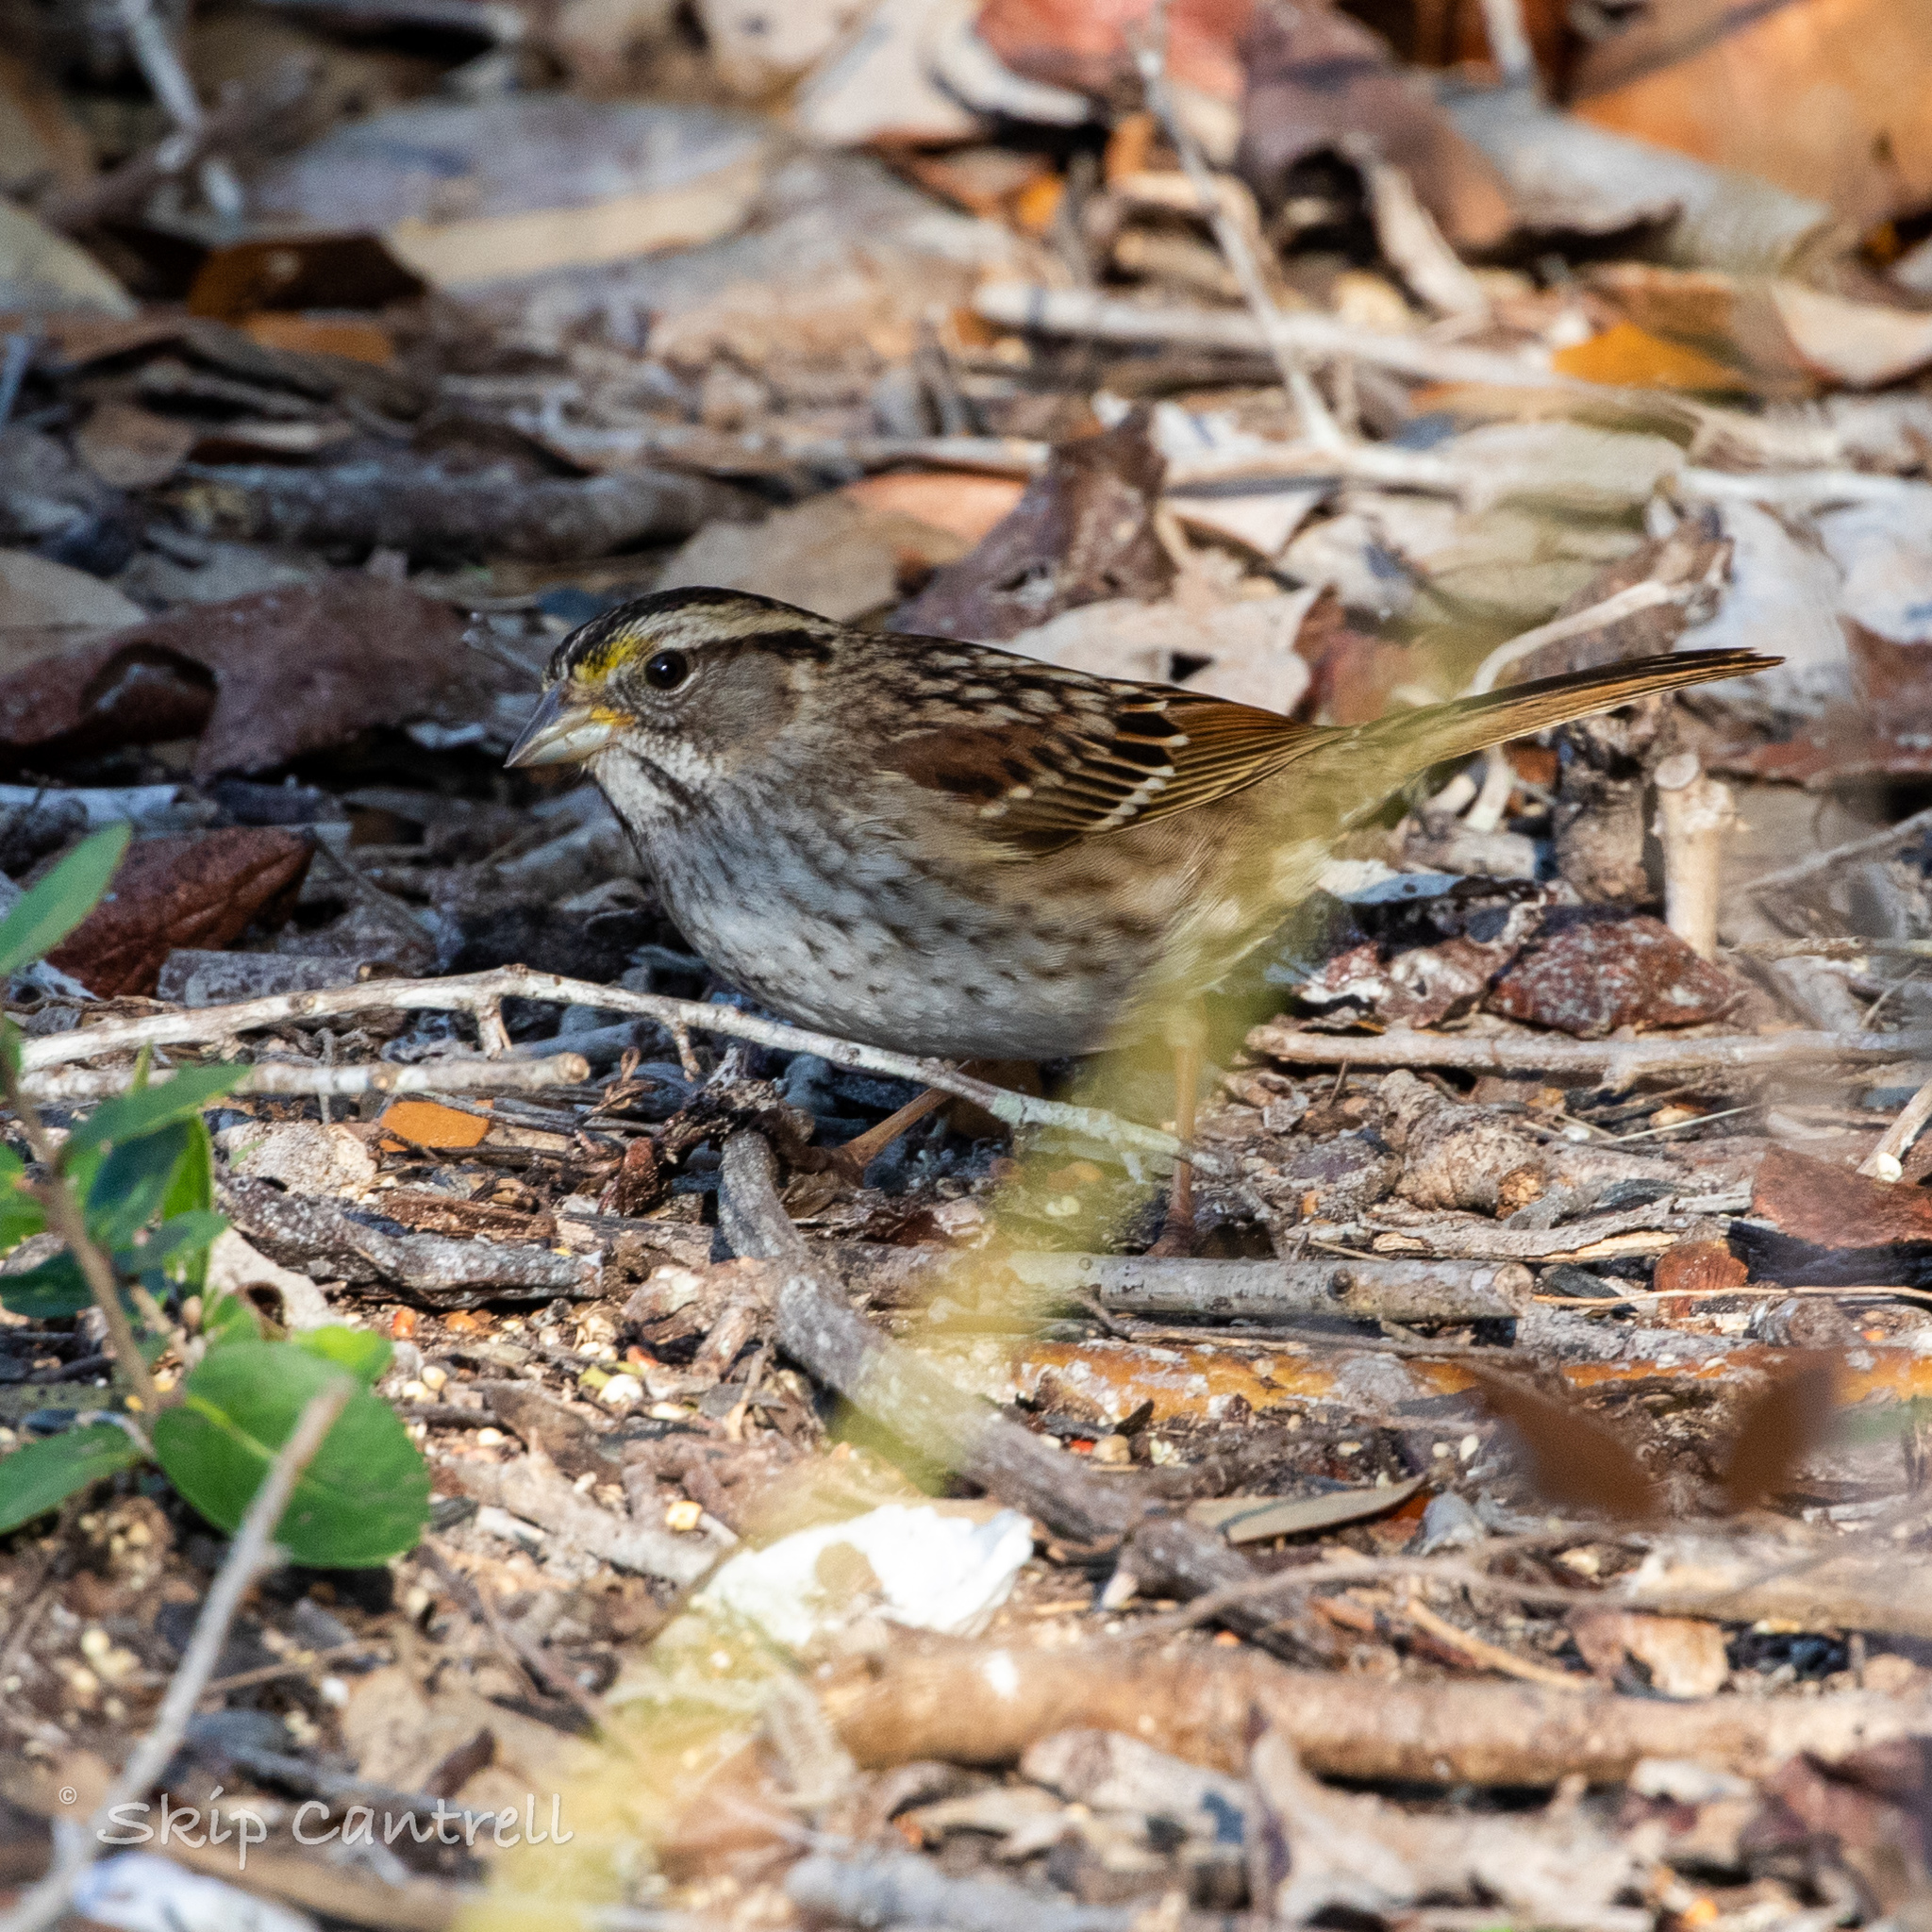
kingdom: Animalia
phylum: Chordata
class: Aves
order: Passeriformes
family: Passerellidae
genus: Zonotrichia
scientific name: Zonotrichia albicollis
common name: White-throated sparrow
